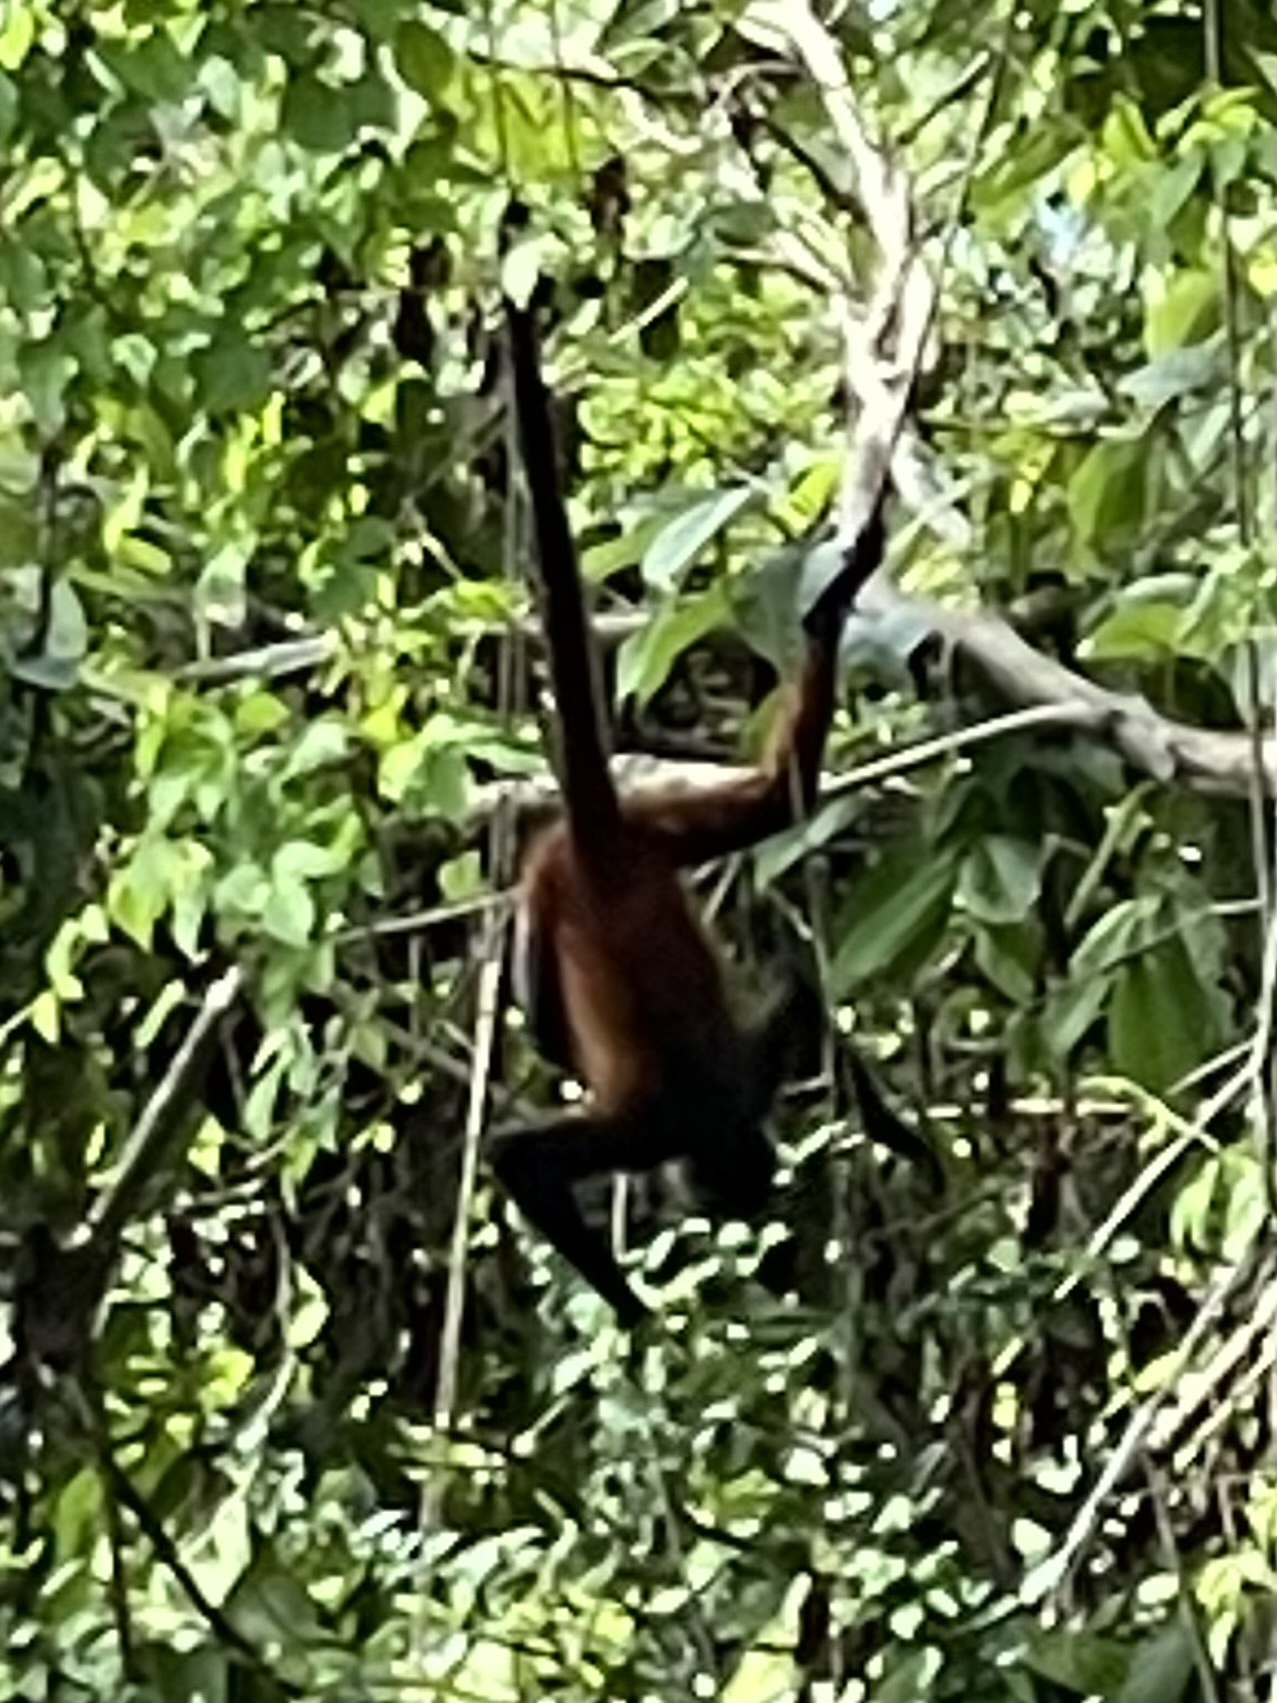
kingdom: Animalia
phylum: Chordata
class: Mammalia
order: Primates
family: Atelidae
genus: Ateles
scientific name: Ateles geoffroyi
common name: Black-handed spider monkey
